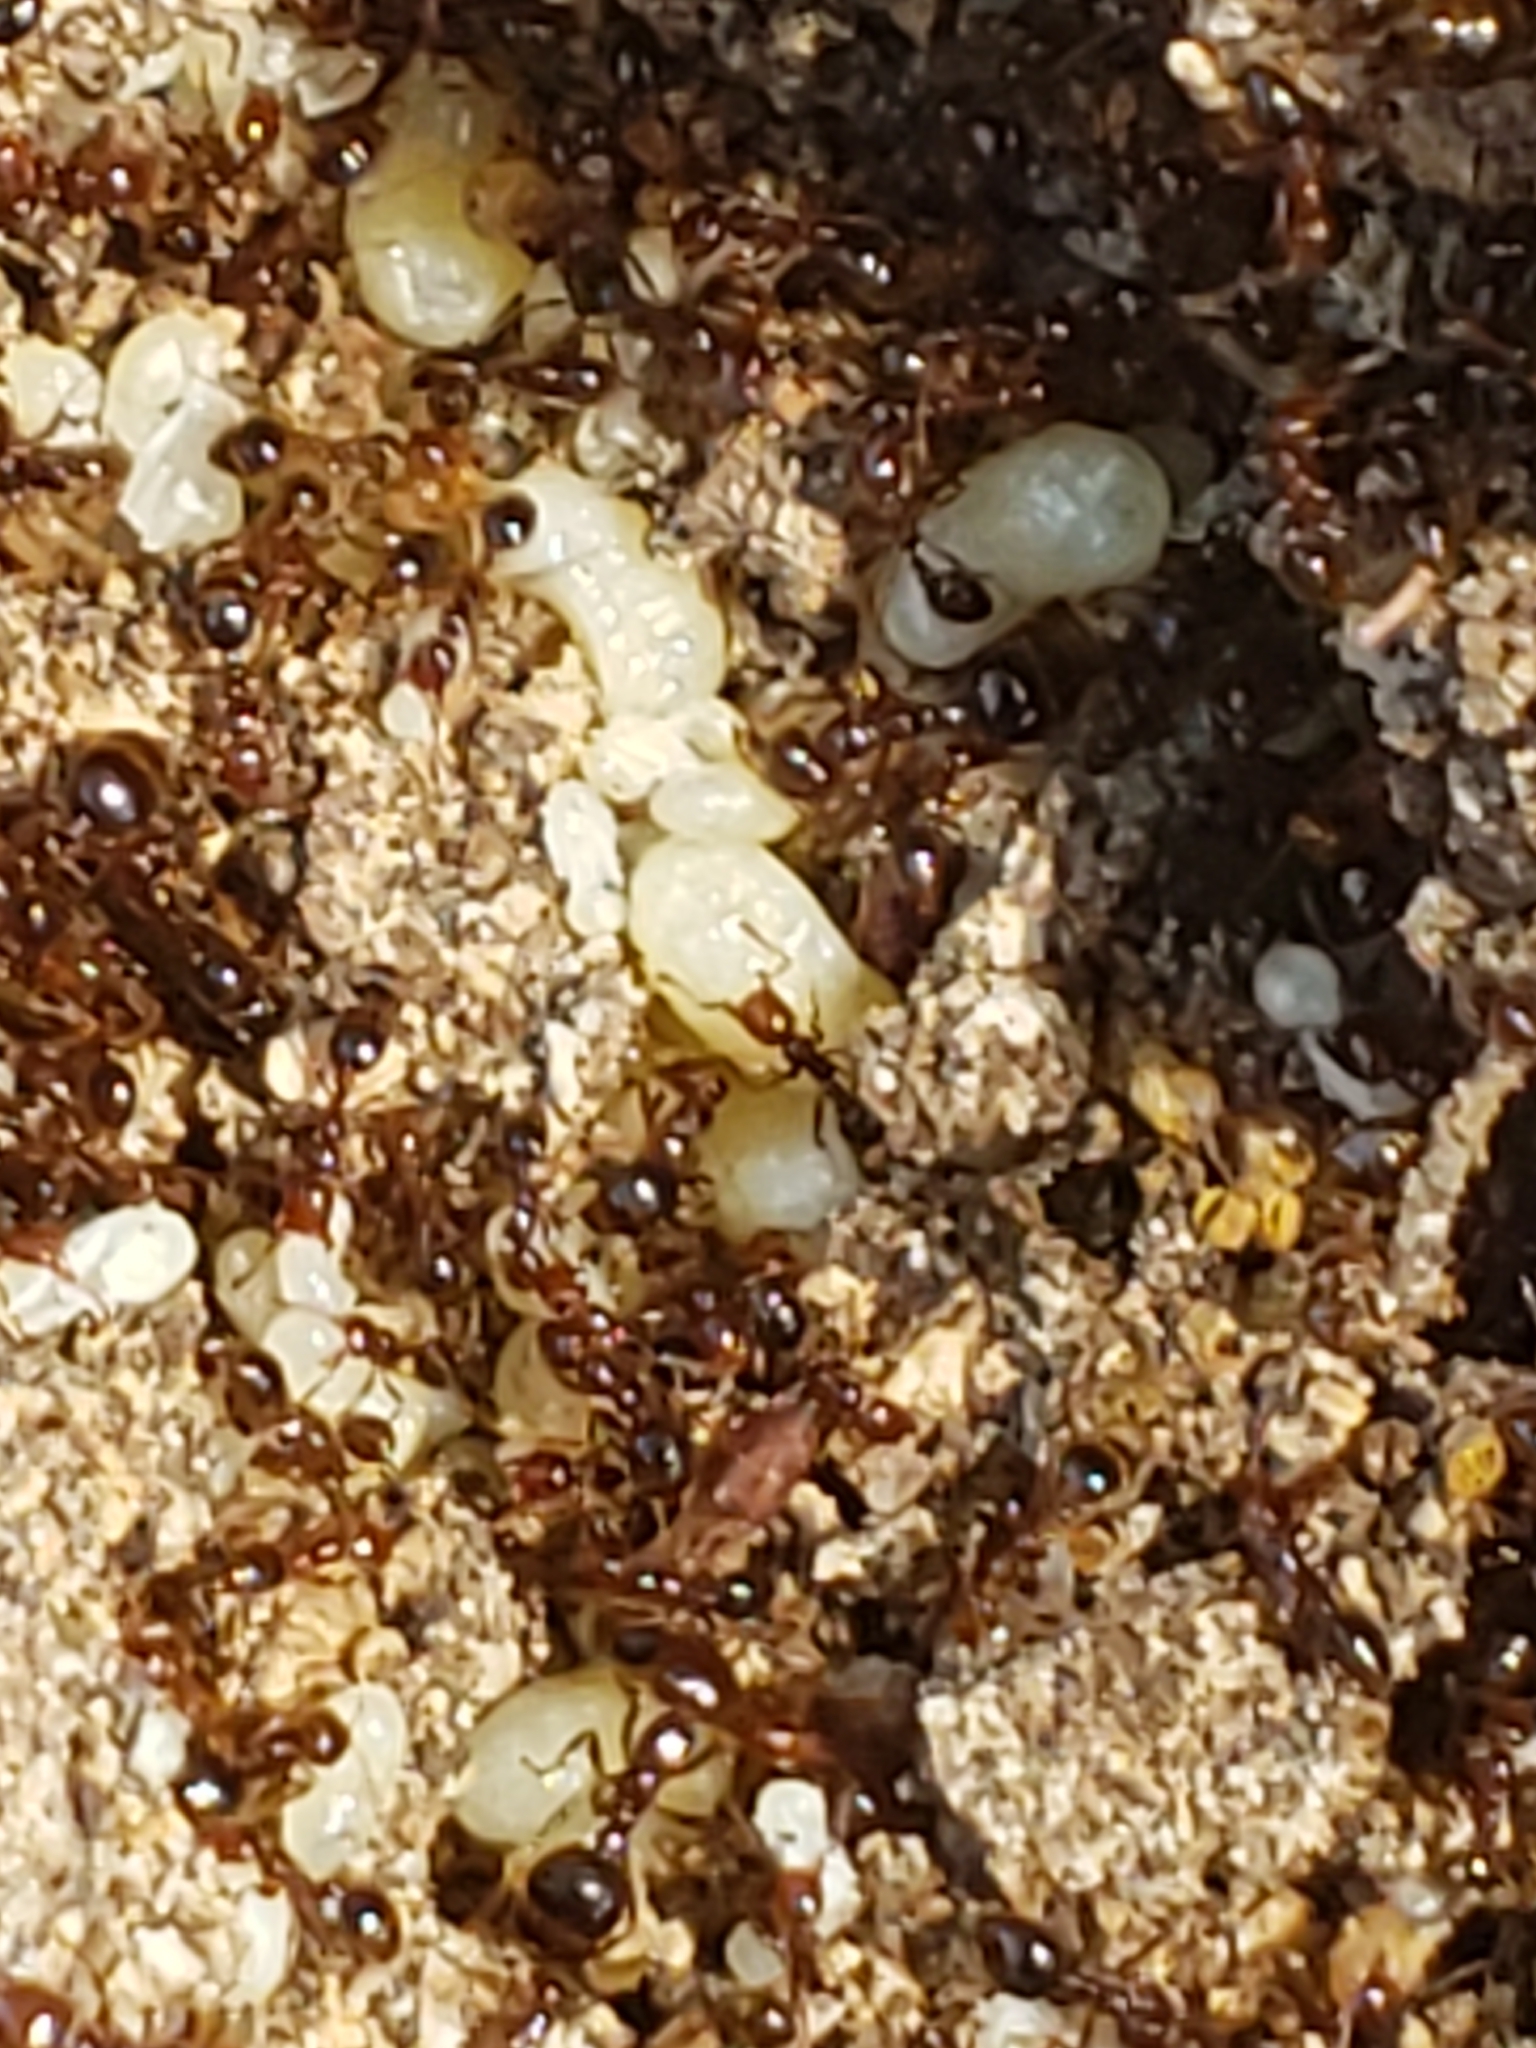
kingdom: Animalia
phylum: Arthropoda
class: Insecta
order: Hymenoptera
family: Formicidae
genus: Solenopsis
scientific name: Solenopsis invicta
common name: Red imported fire ant
